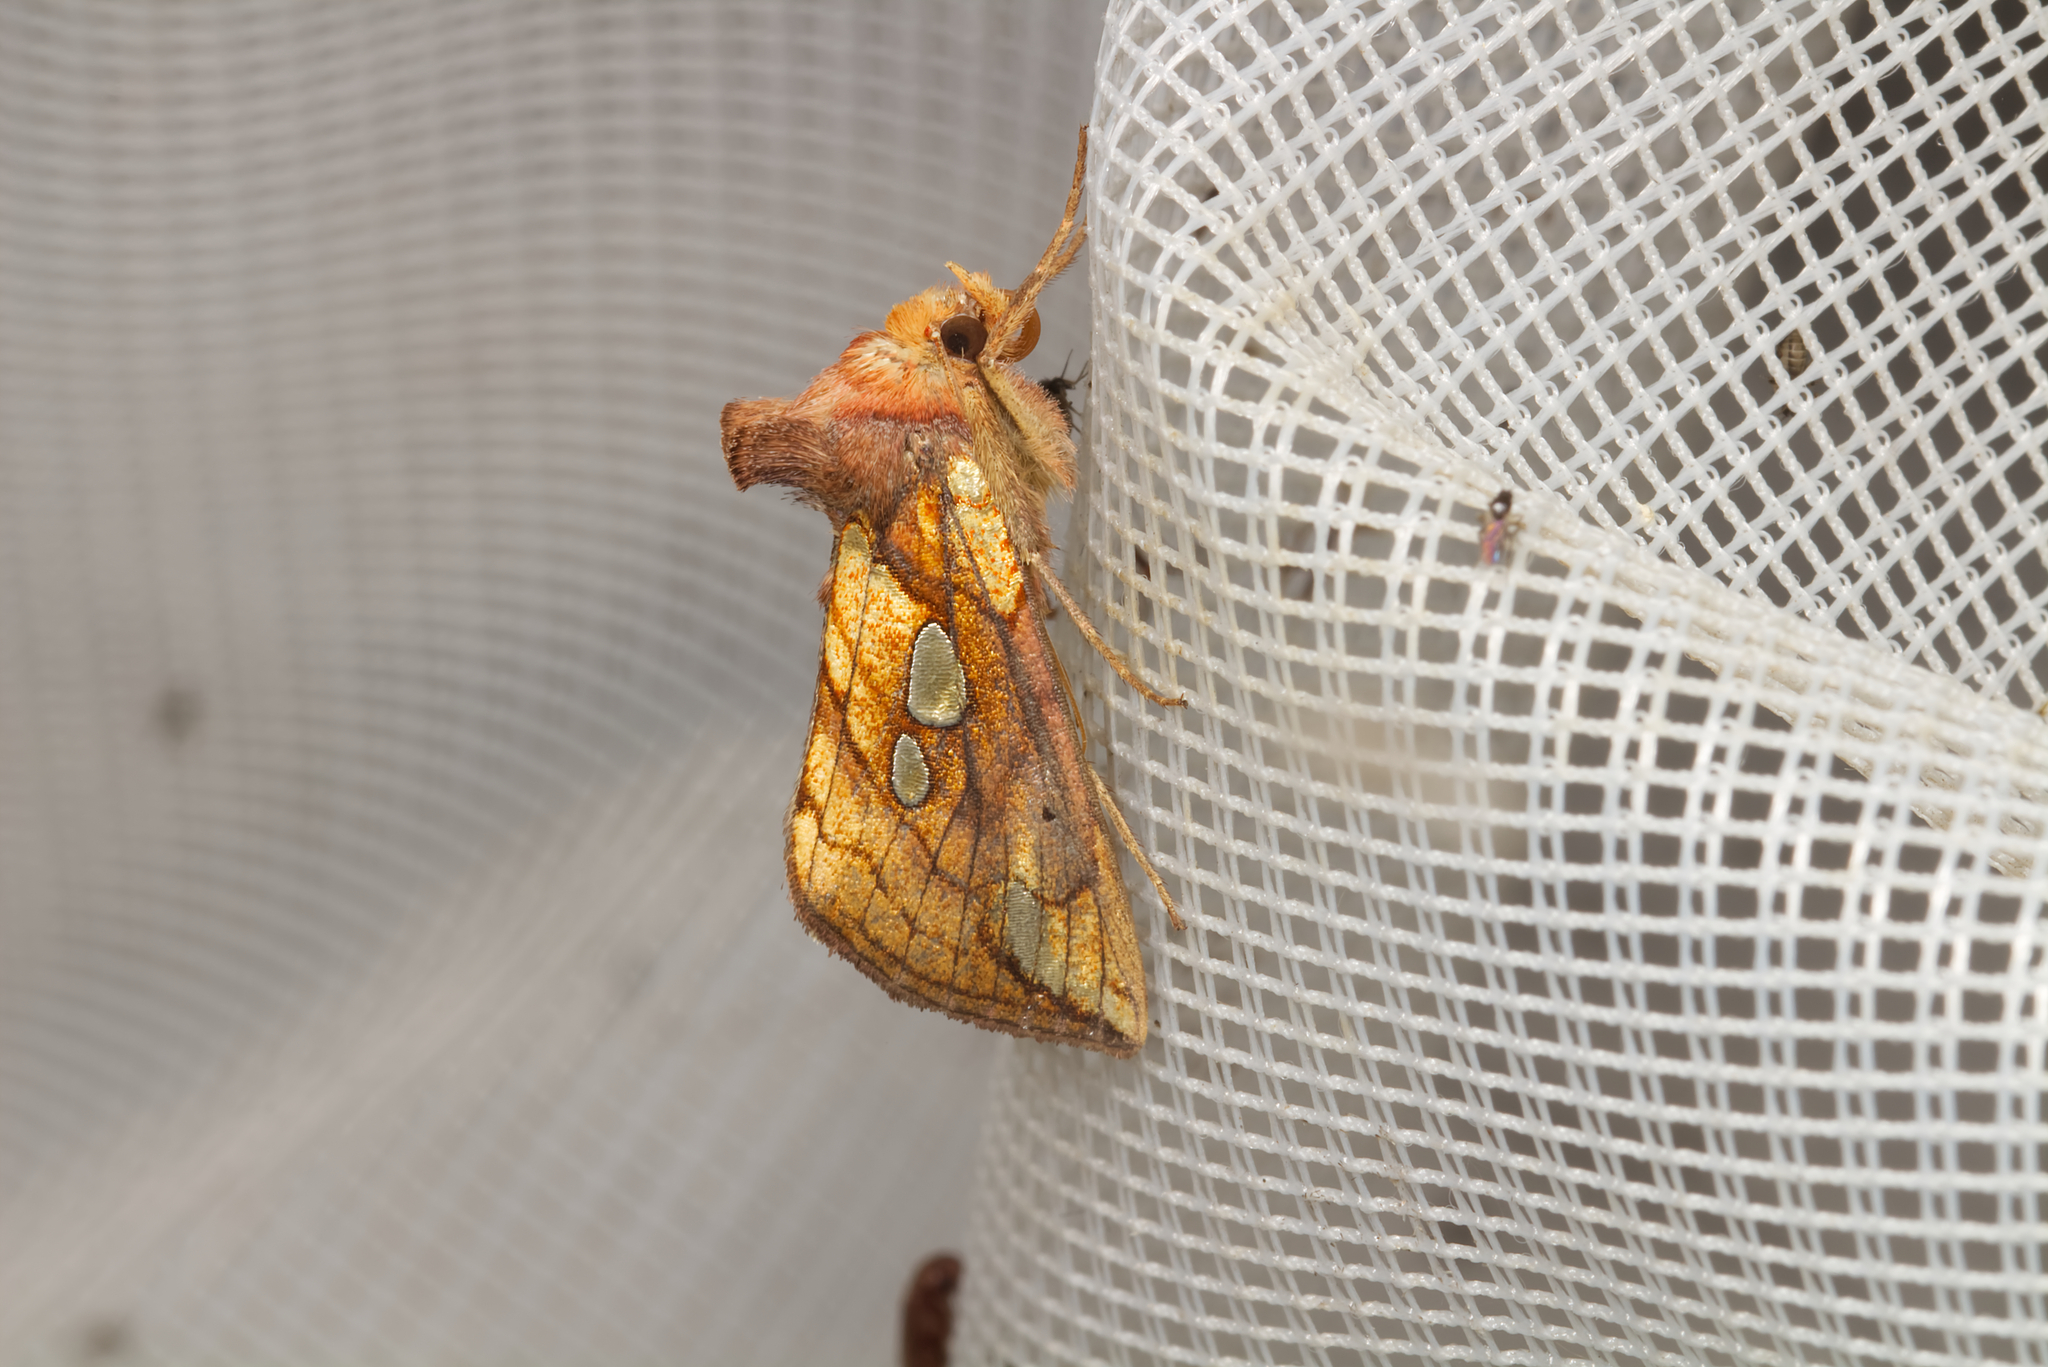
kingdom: Animalia
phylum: Arthropoda
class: Insecta
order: Lepidoptera
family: Noctuidae
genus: Plusia
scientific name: Plusia putnami
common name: Lempke's gold spot
